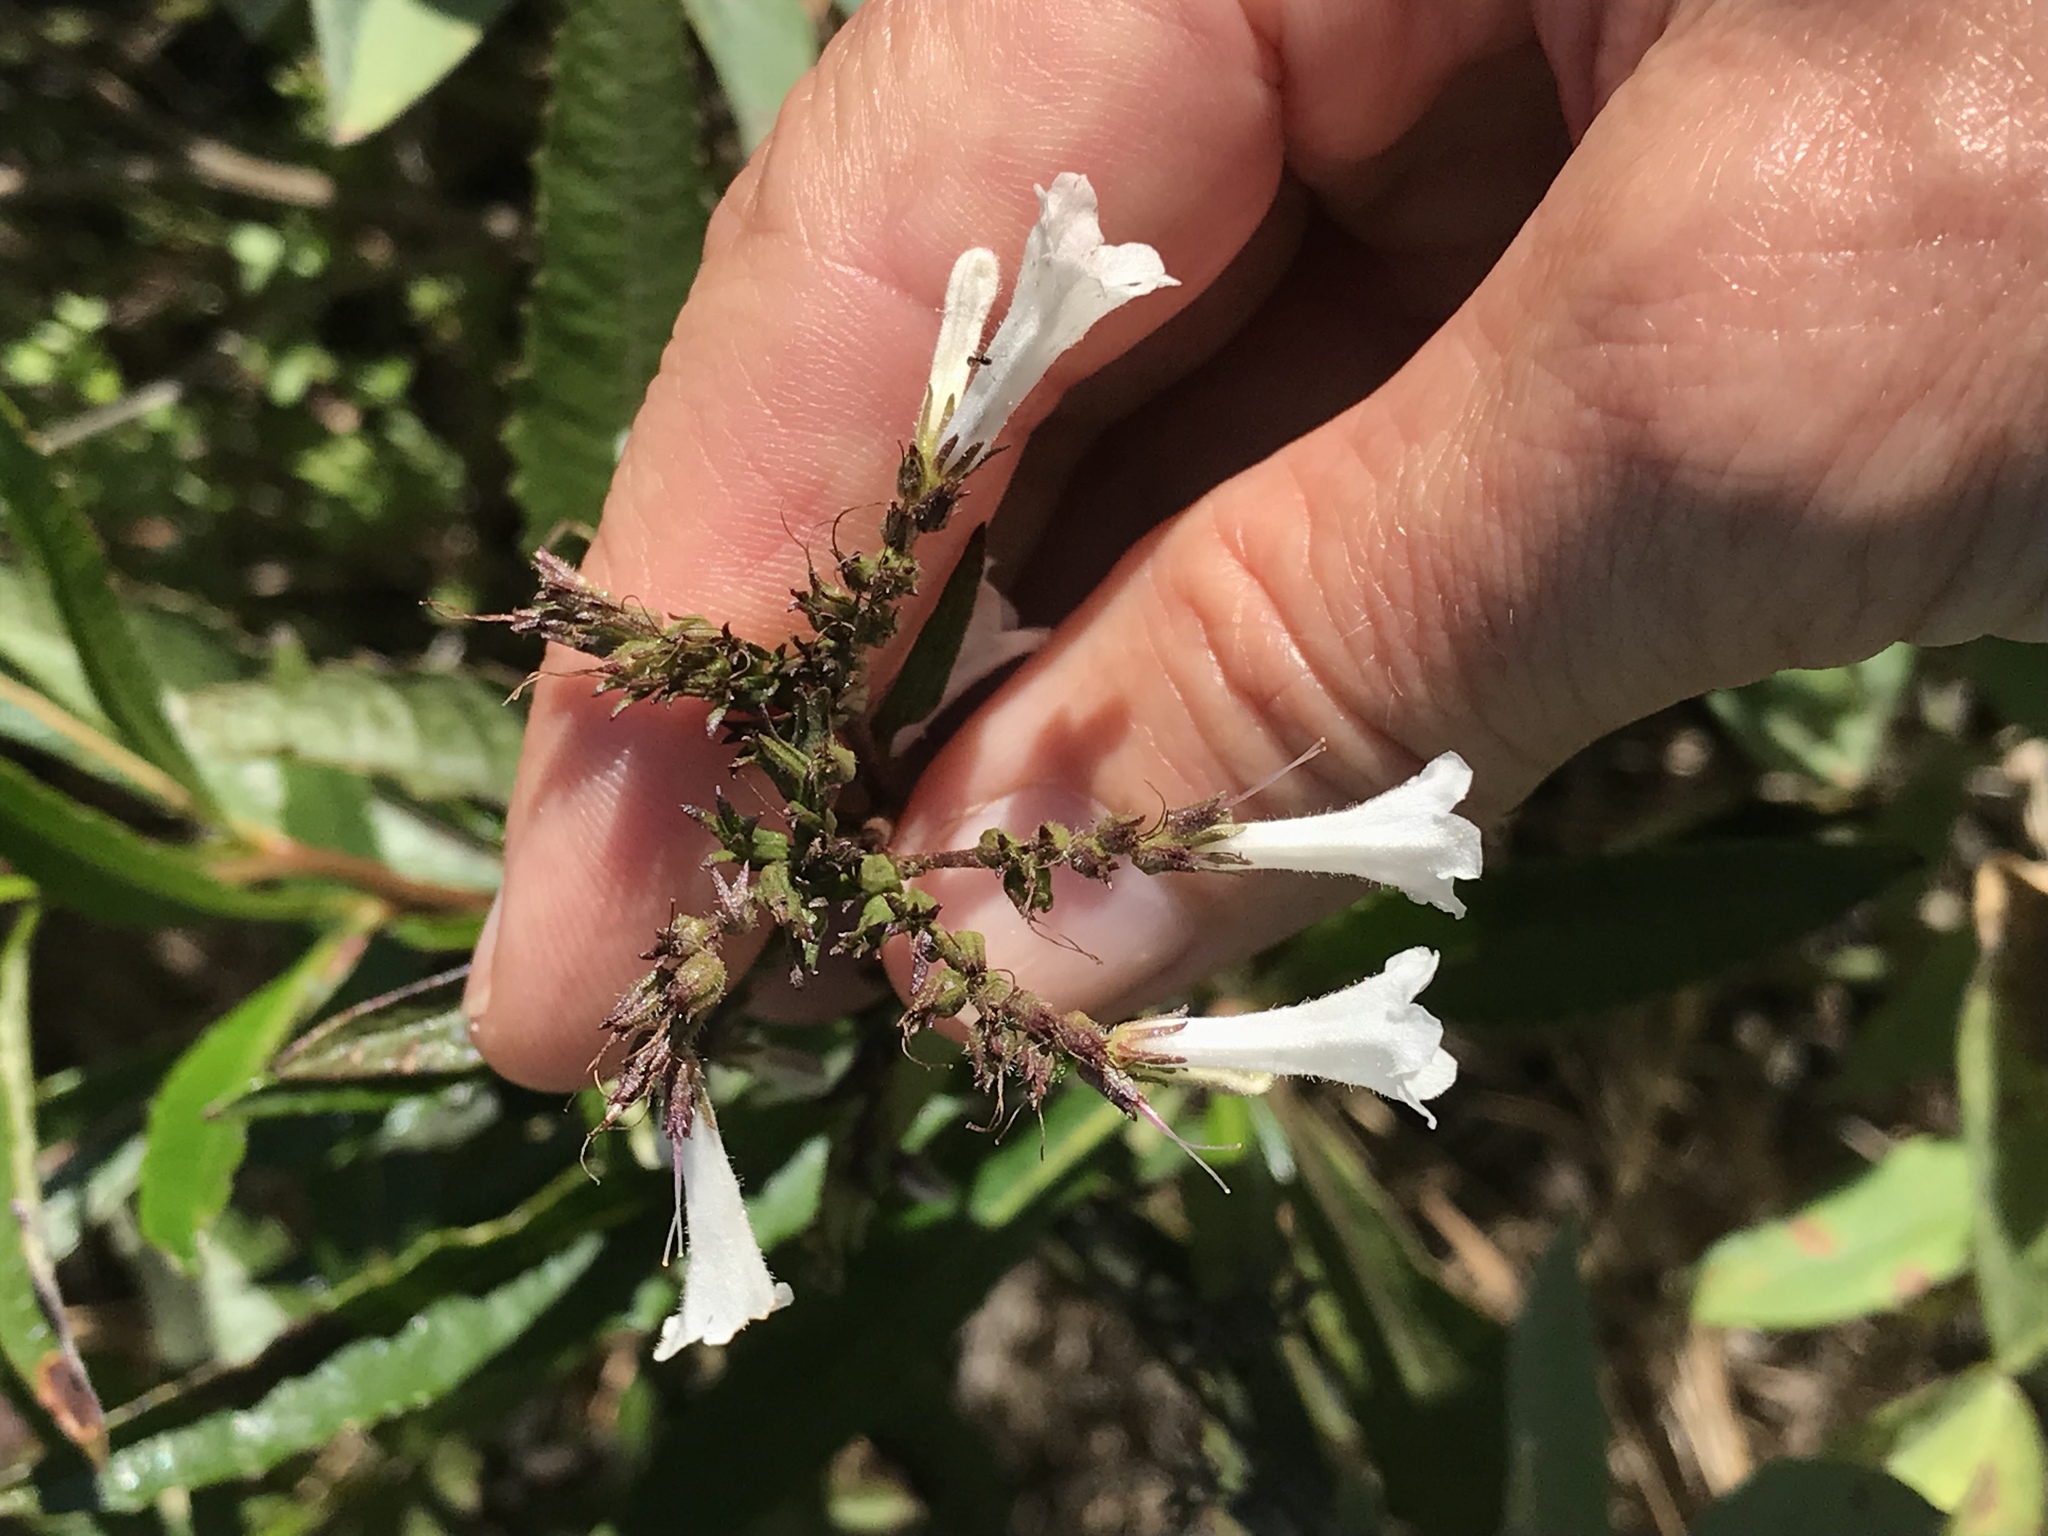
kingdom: Plantae
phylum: Tracheophyta
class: Magnoliopsida
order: Boraginales
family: Namaceae
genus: Eriodictyon
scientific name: Eriodictyon californicum
